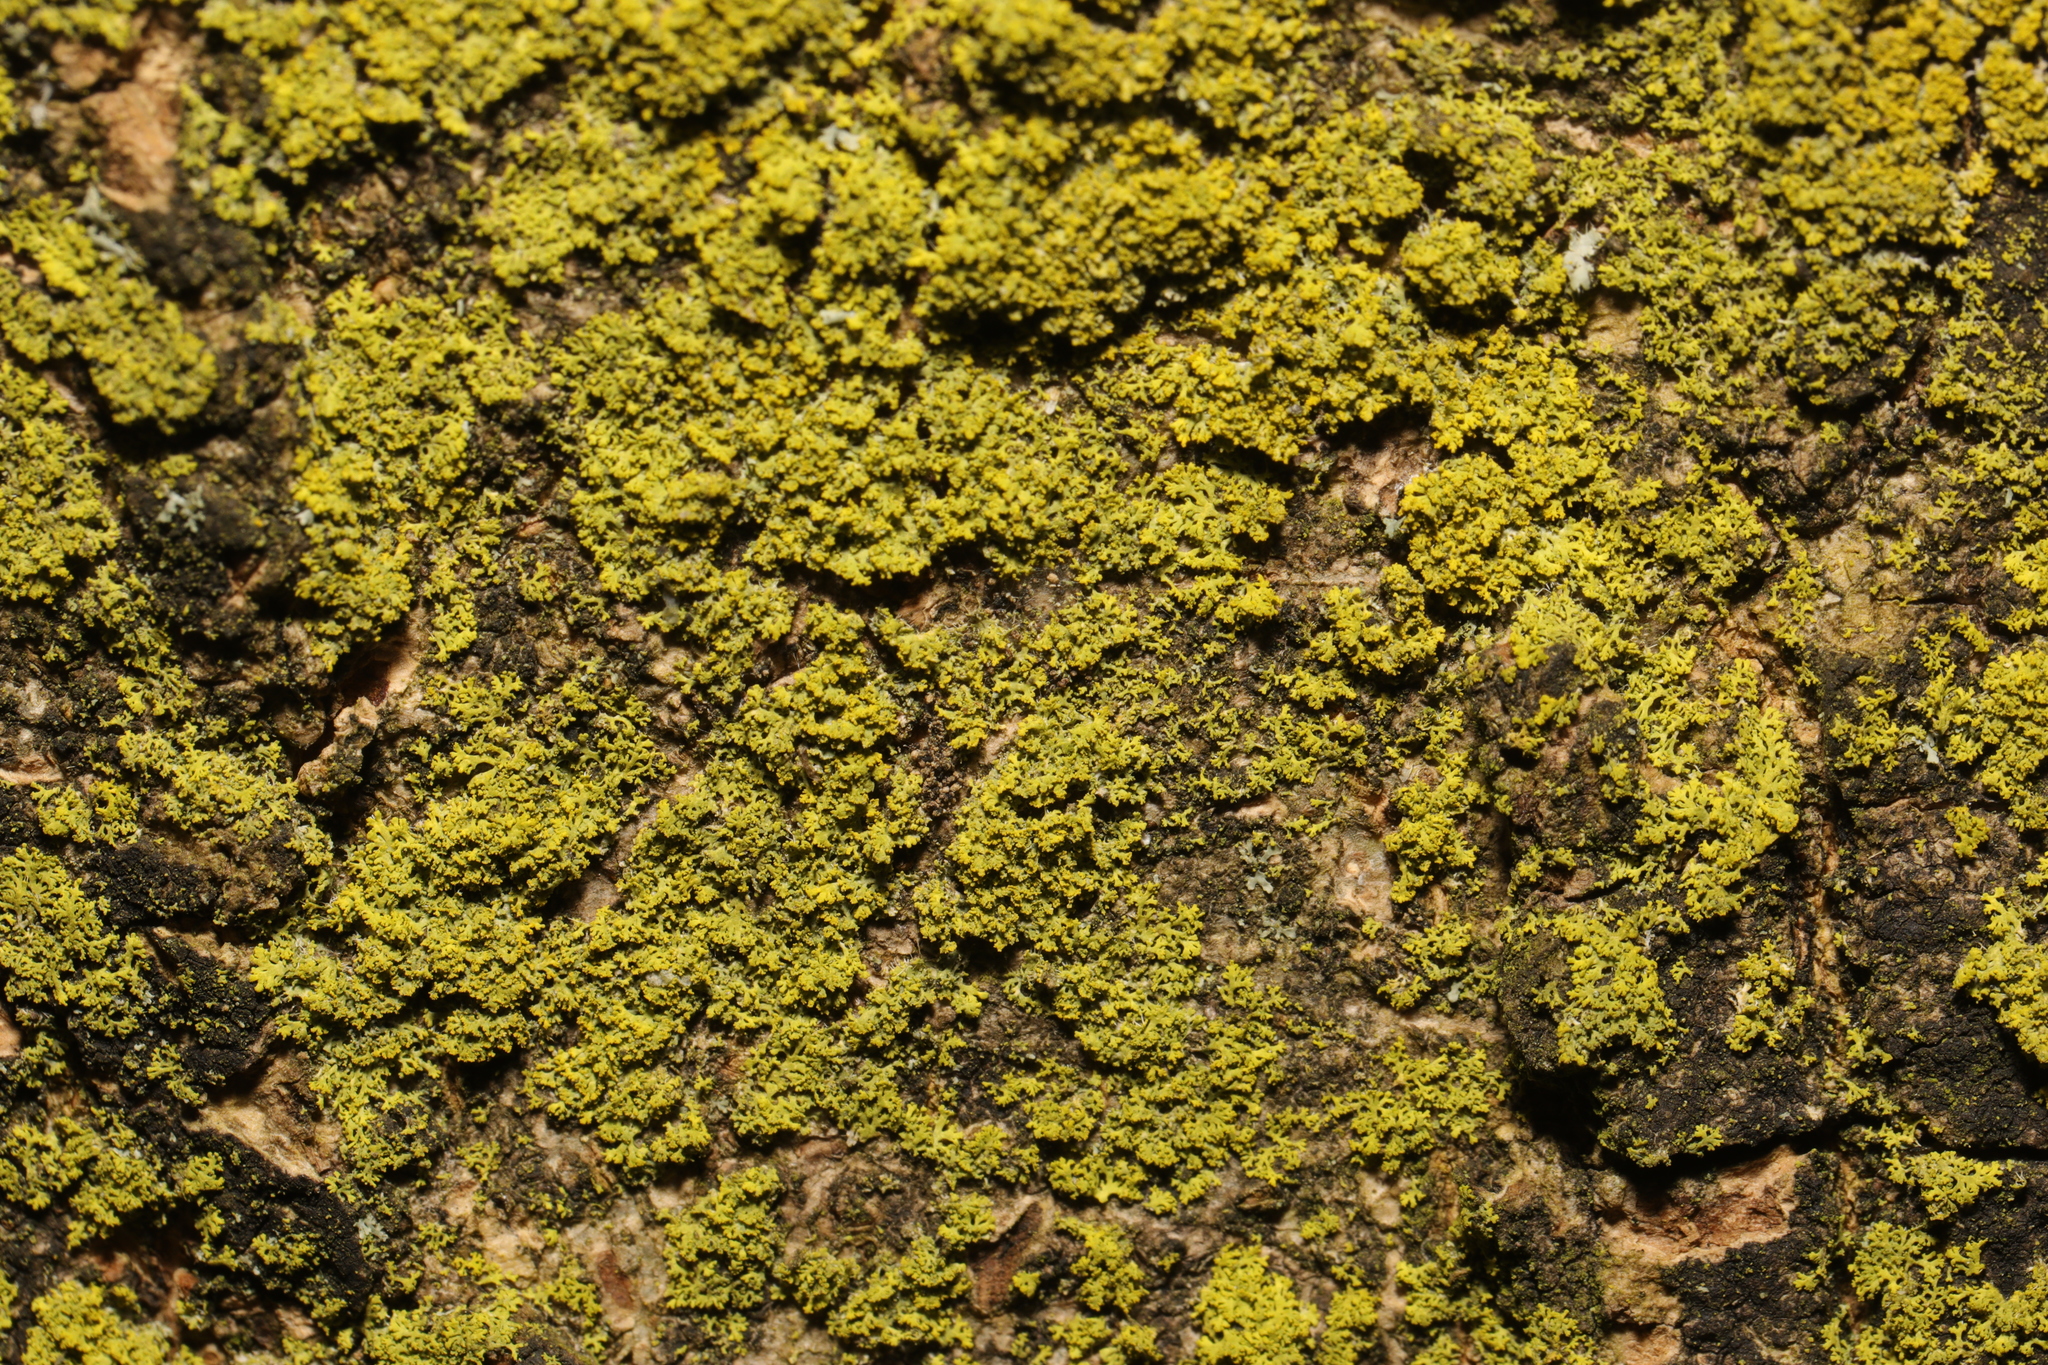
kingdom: Fungi
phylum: Ascomycota
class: Candelariomycetes
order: Candelariales
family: Candelariaceae
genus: Candelaria
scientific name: Candelaria concolor
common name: Candleflame lichen
